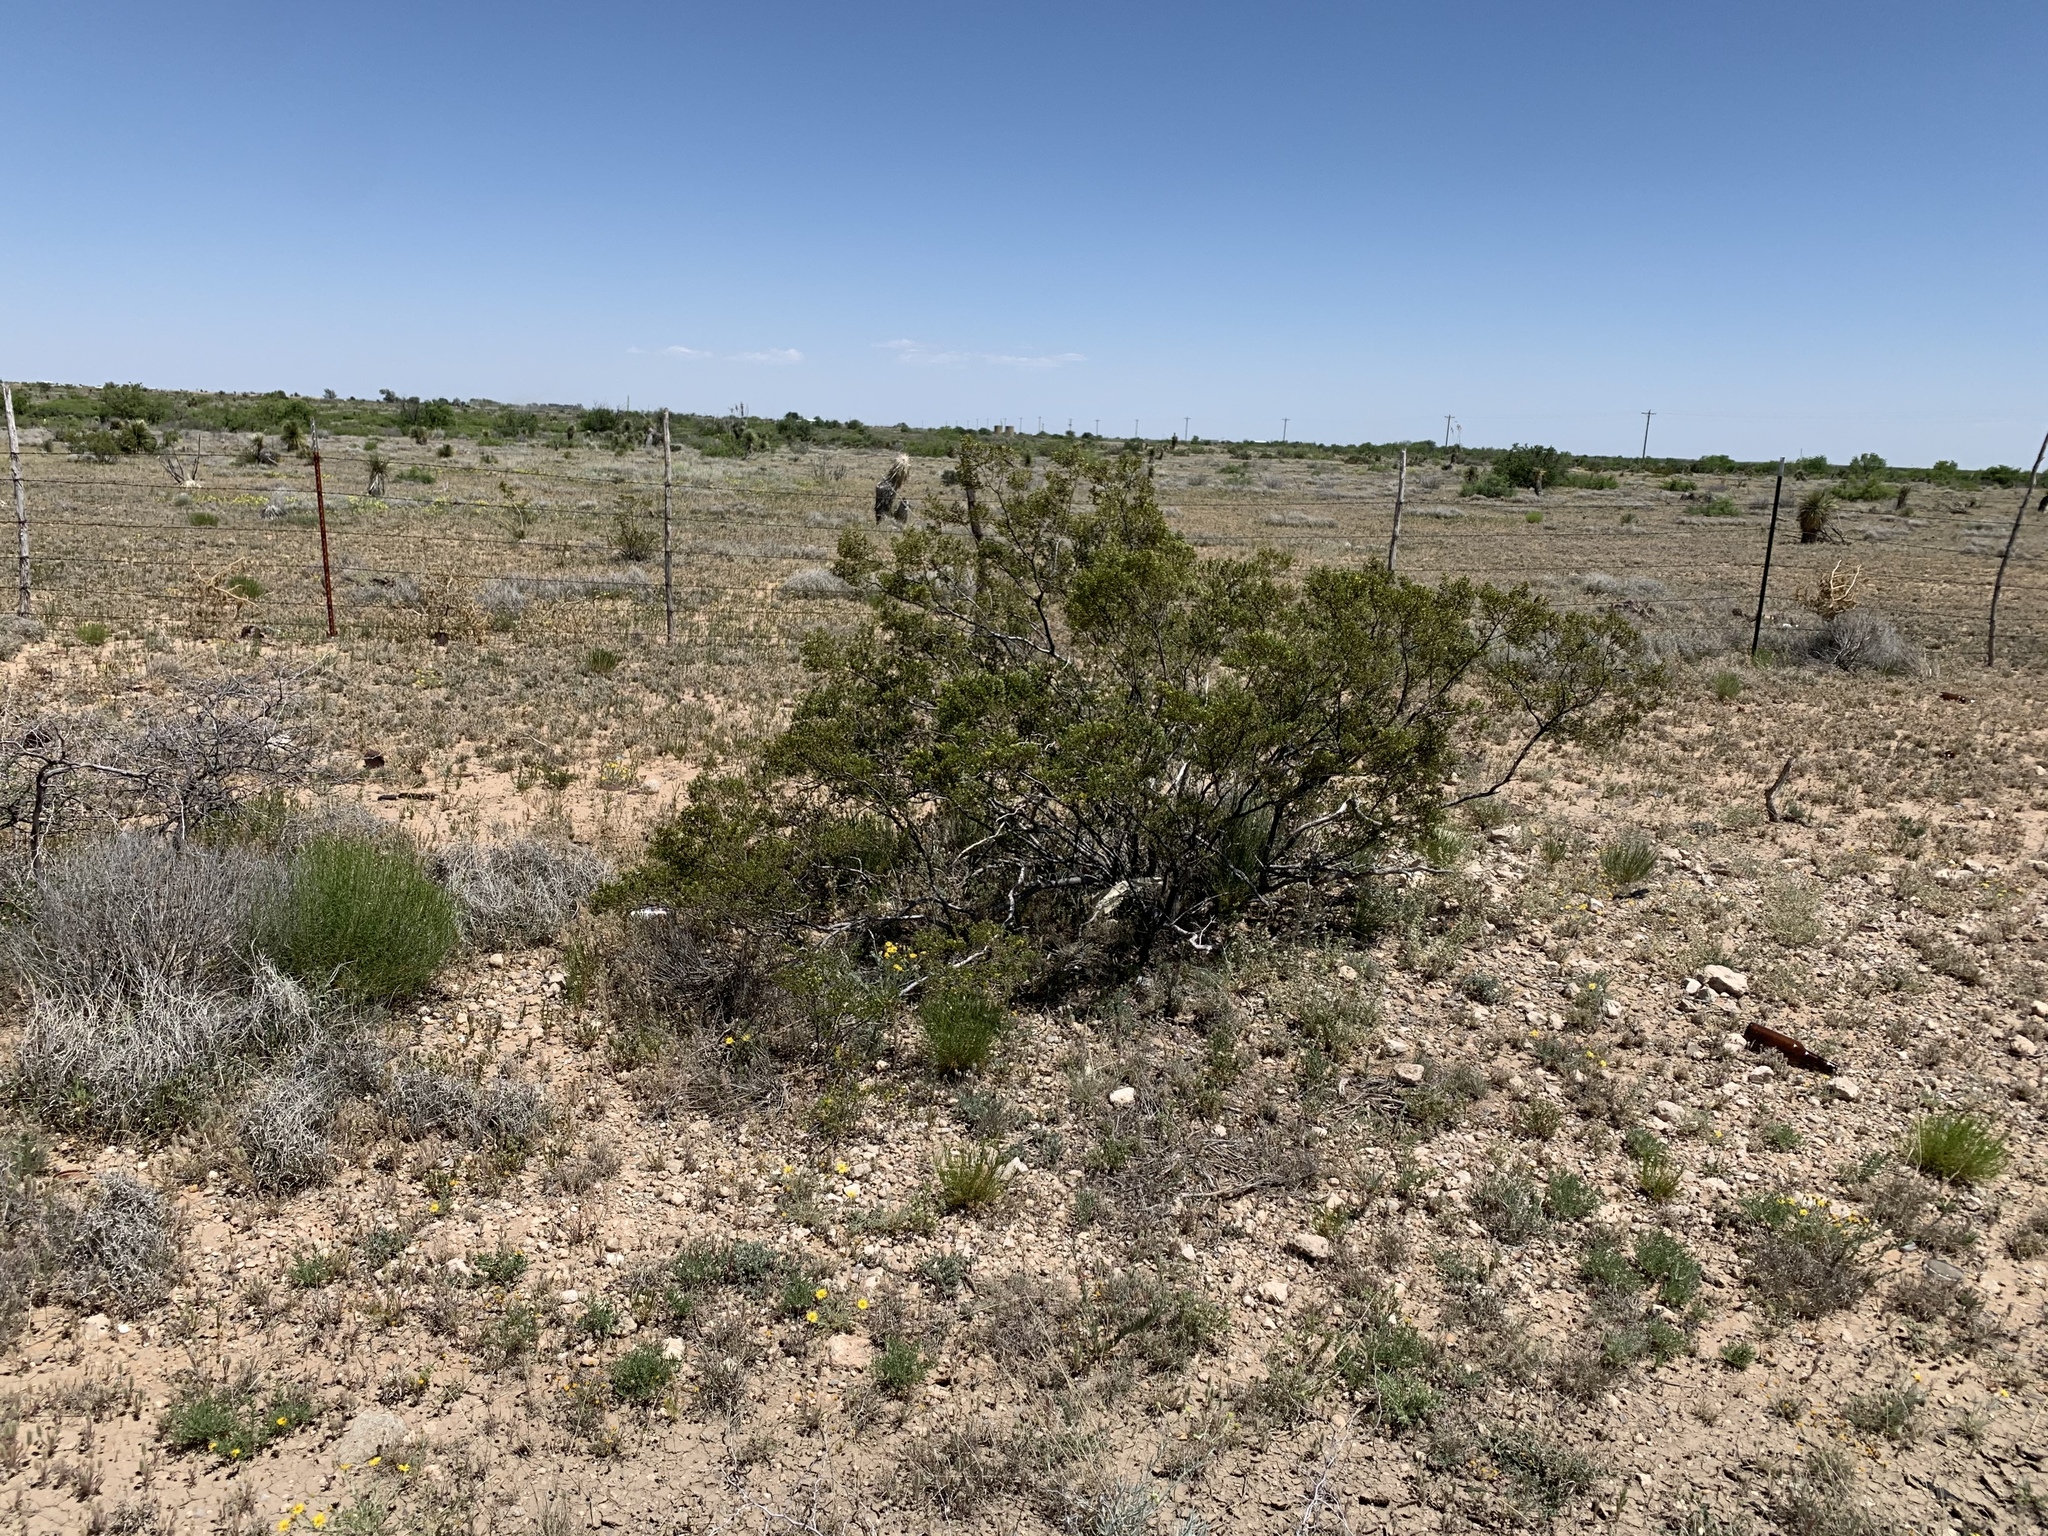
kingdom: Plantae
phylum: Tracheophyta
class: Magnoliopsida
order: Zygophyllales
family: Zygophyllaceae
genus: Larrea
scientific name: Larrea tridentata
